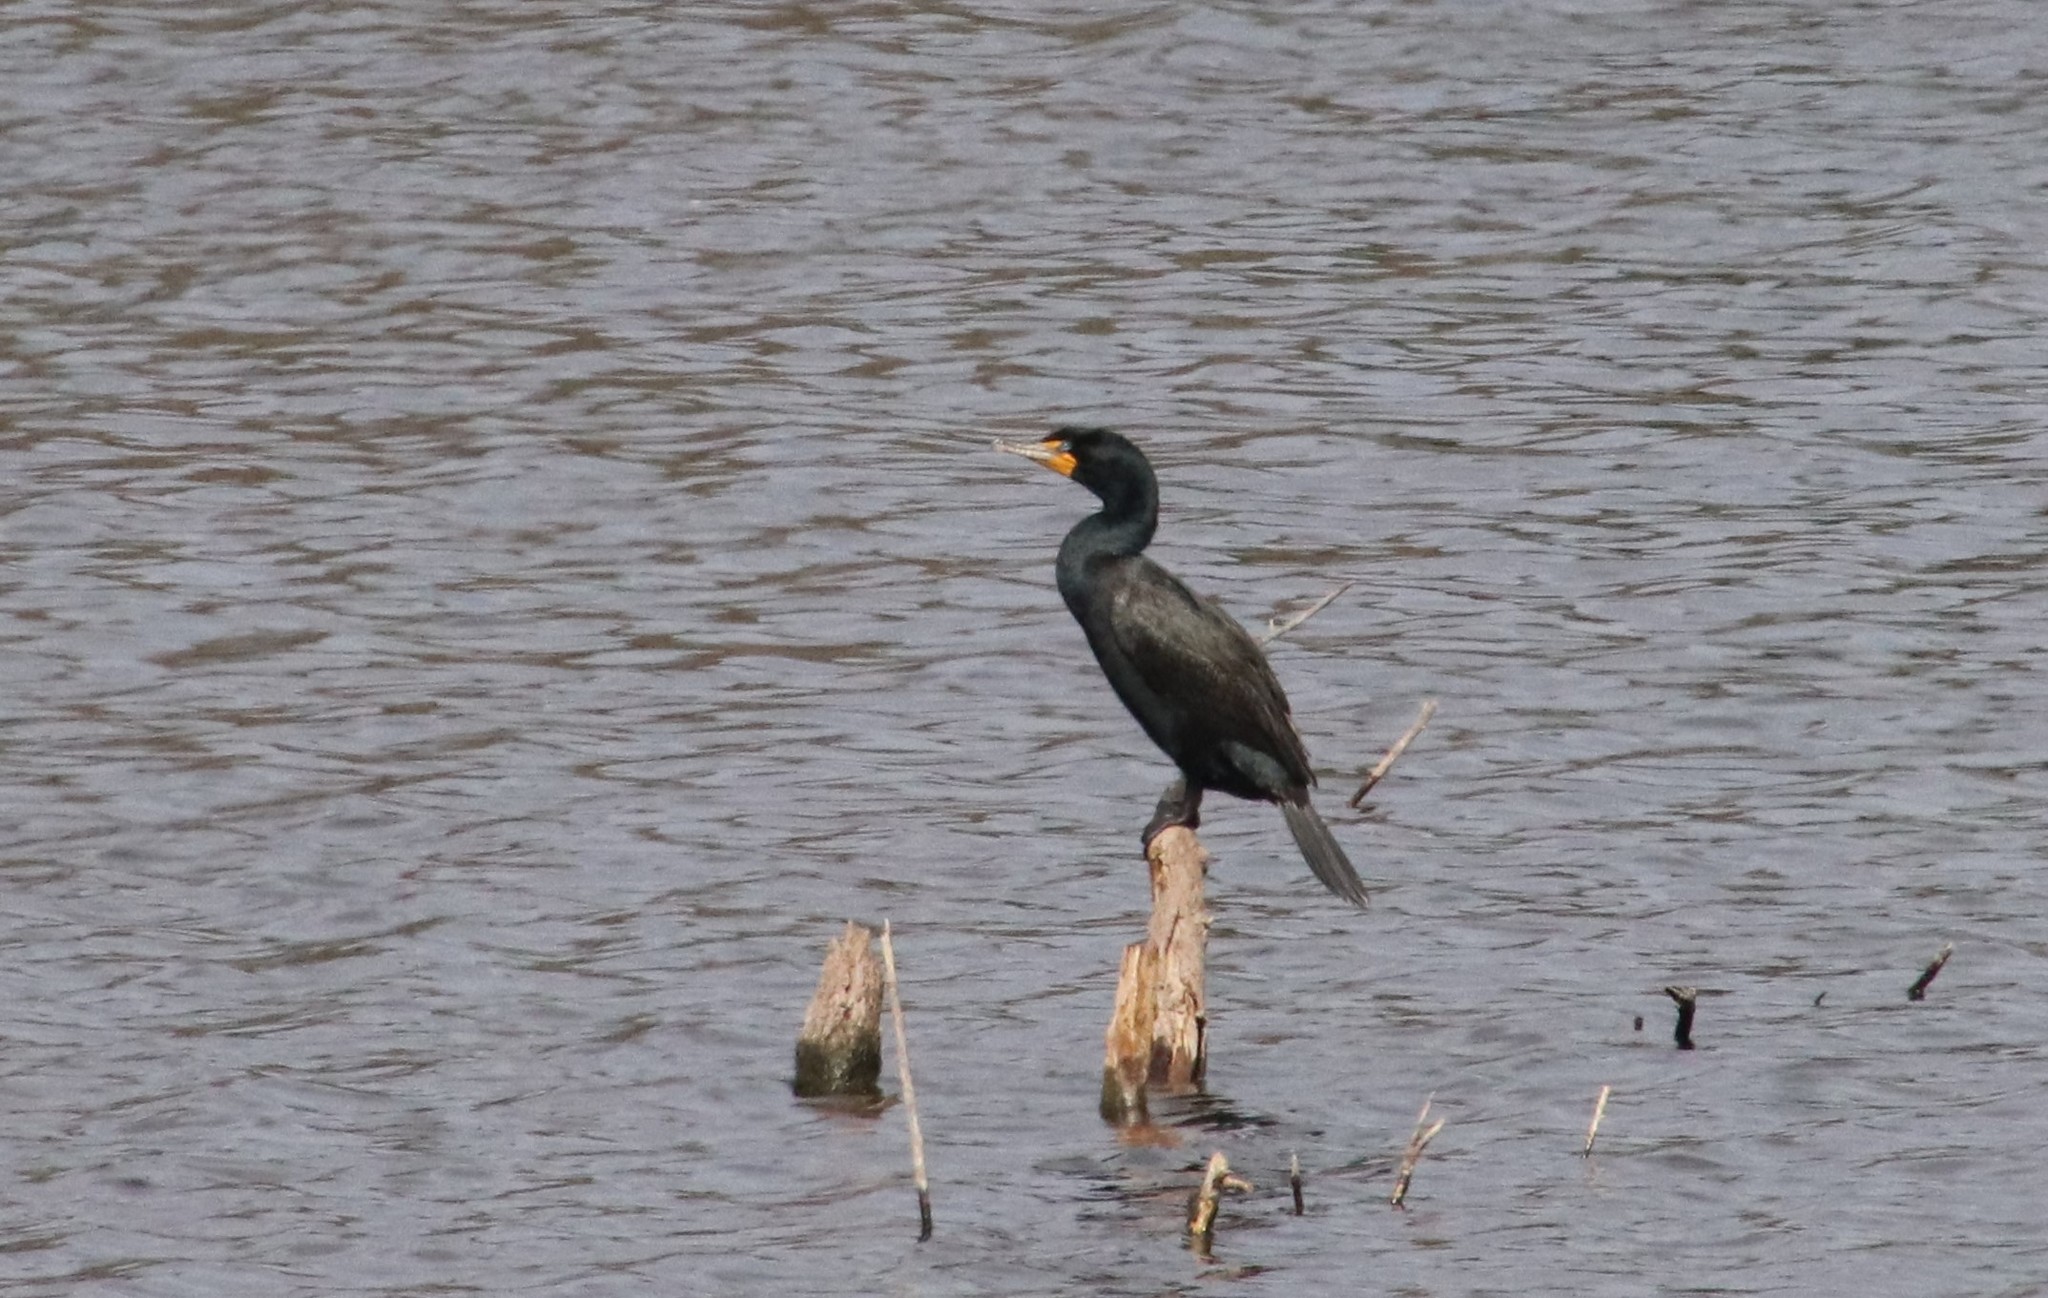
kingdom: Animalia
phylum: Chordata
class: Aves
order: Suliformes
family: Phalacrocoracidae
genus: Phalacrocorax
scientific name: Phalacrocorax auritus
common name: Double-crested cormorant
